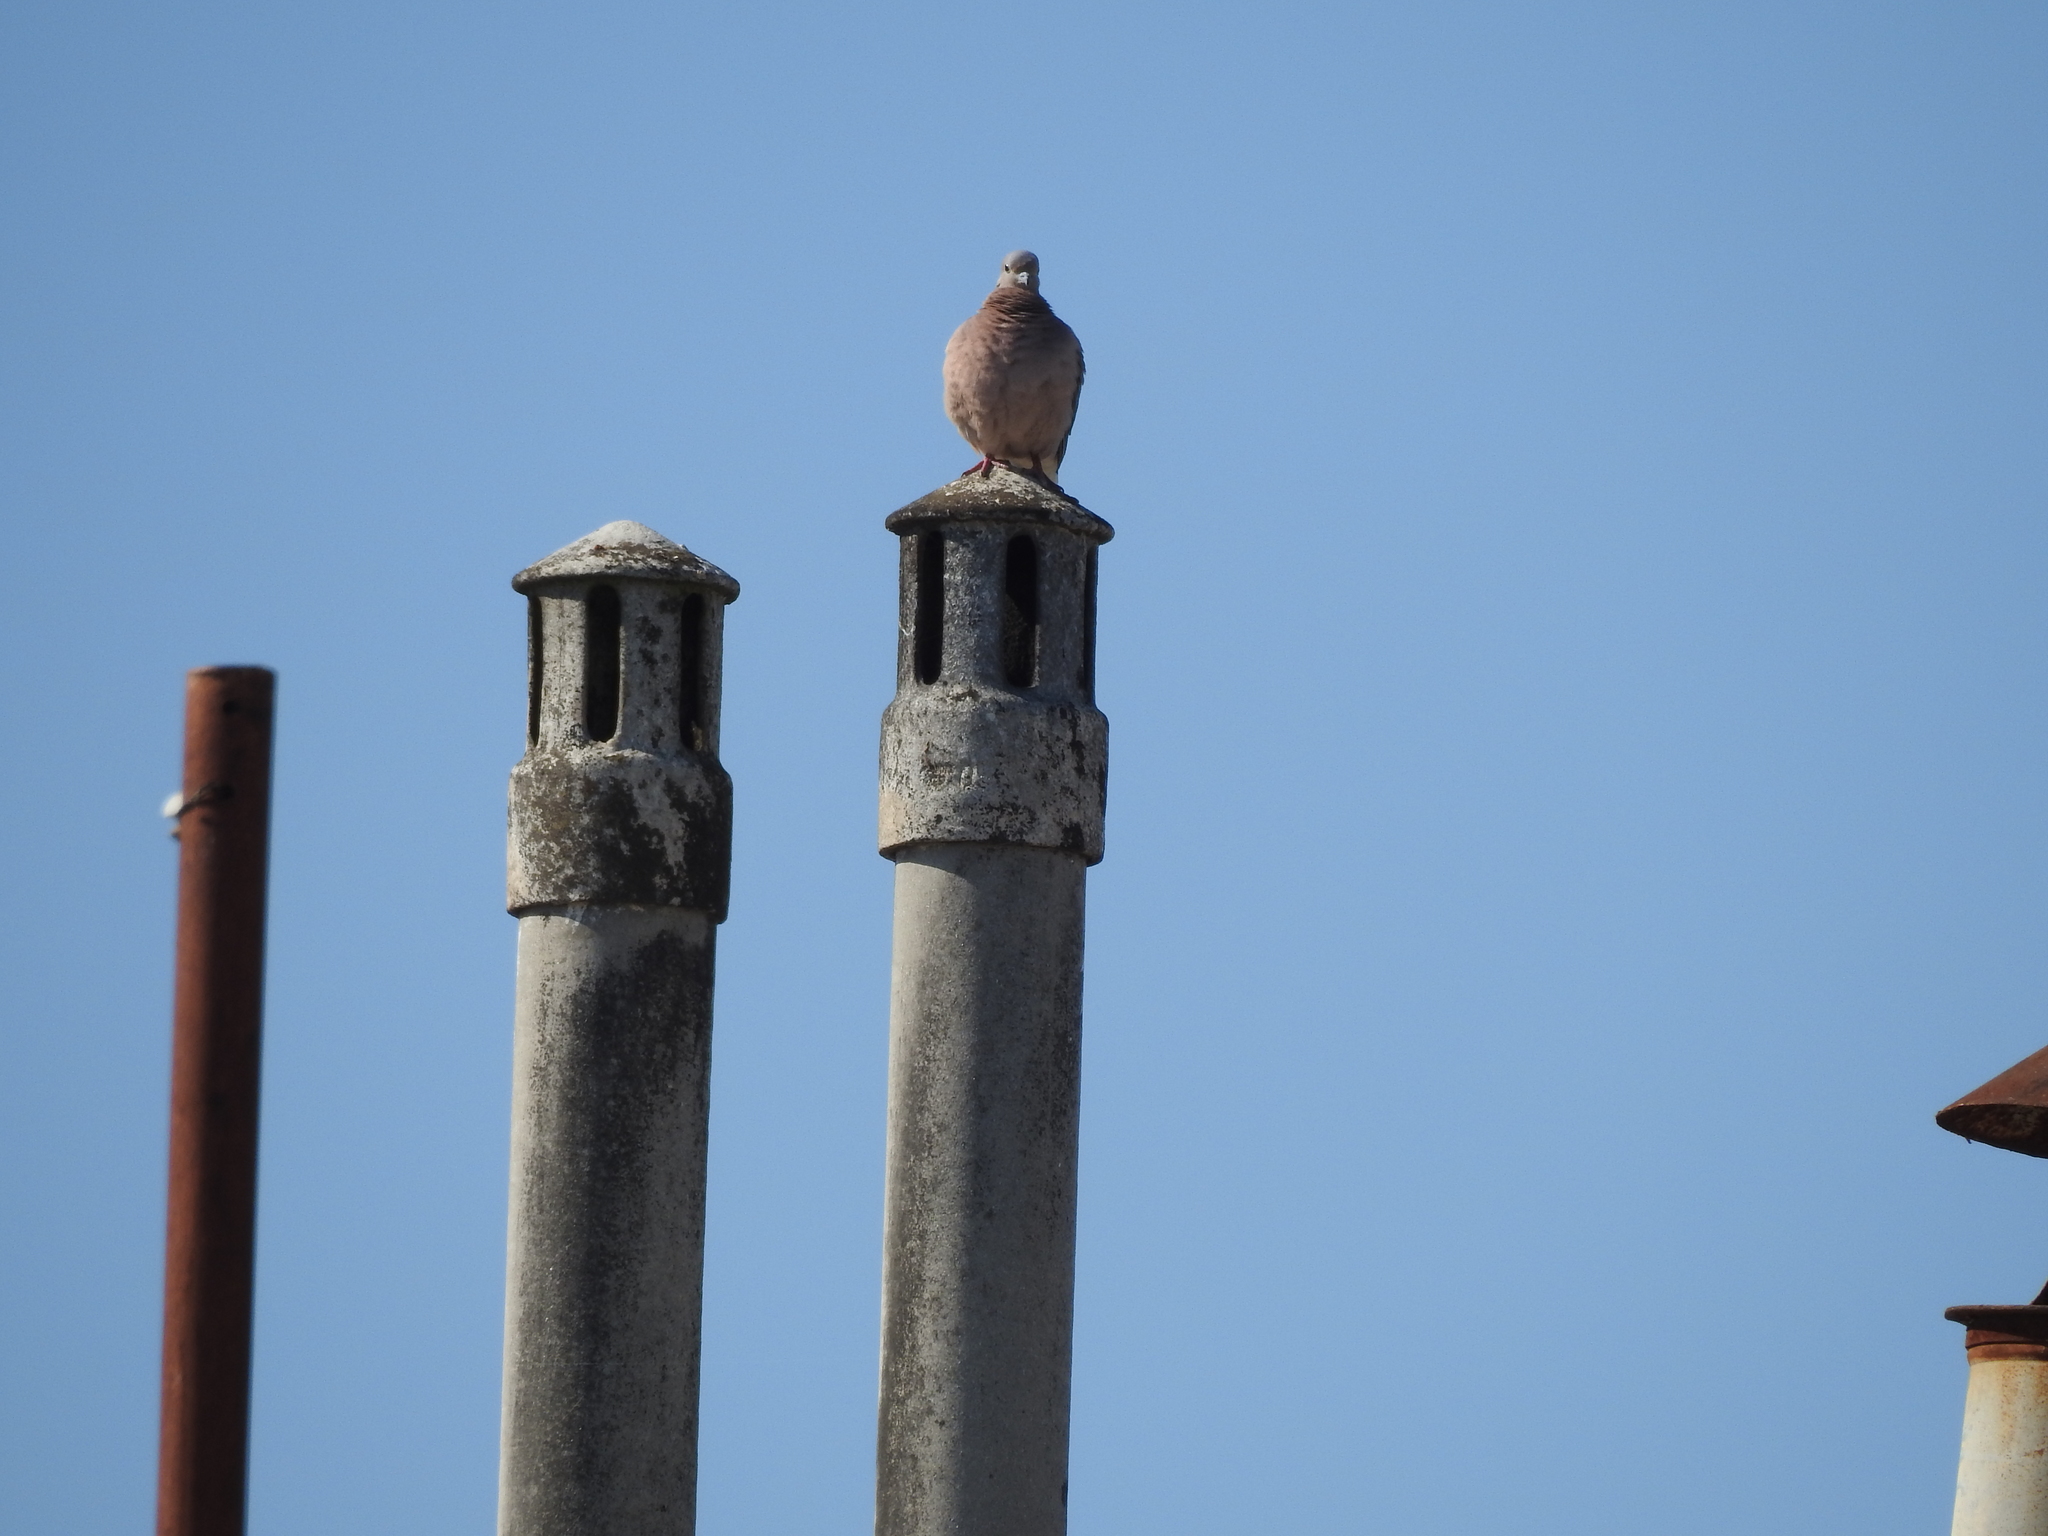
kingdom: Animalia
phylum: Chordata
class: Aves
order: Columbiformes
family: Columbidae
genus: Patagioenas
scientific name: Patagioenas picazuro
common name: Picazuro pigeon
